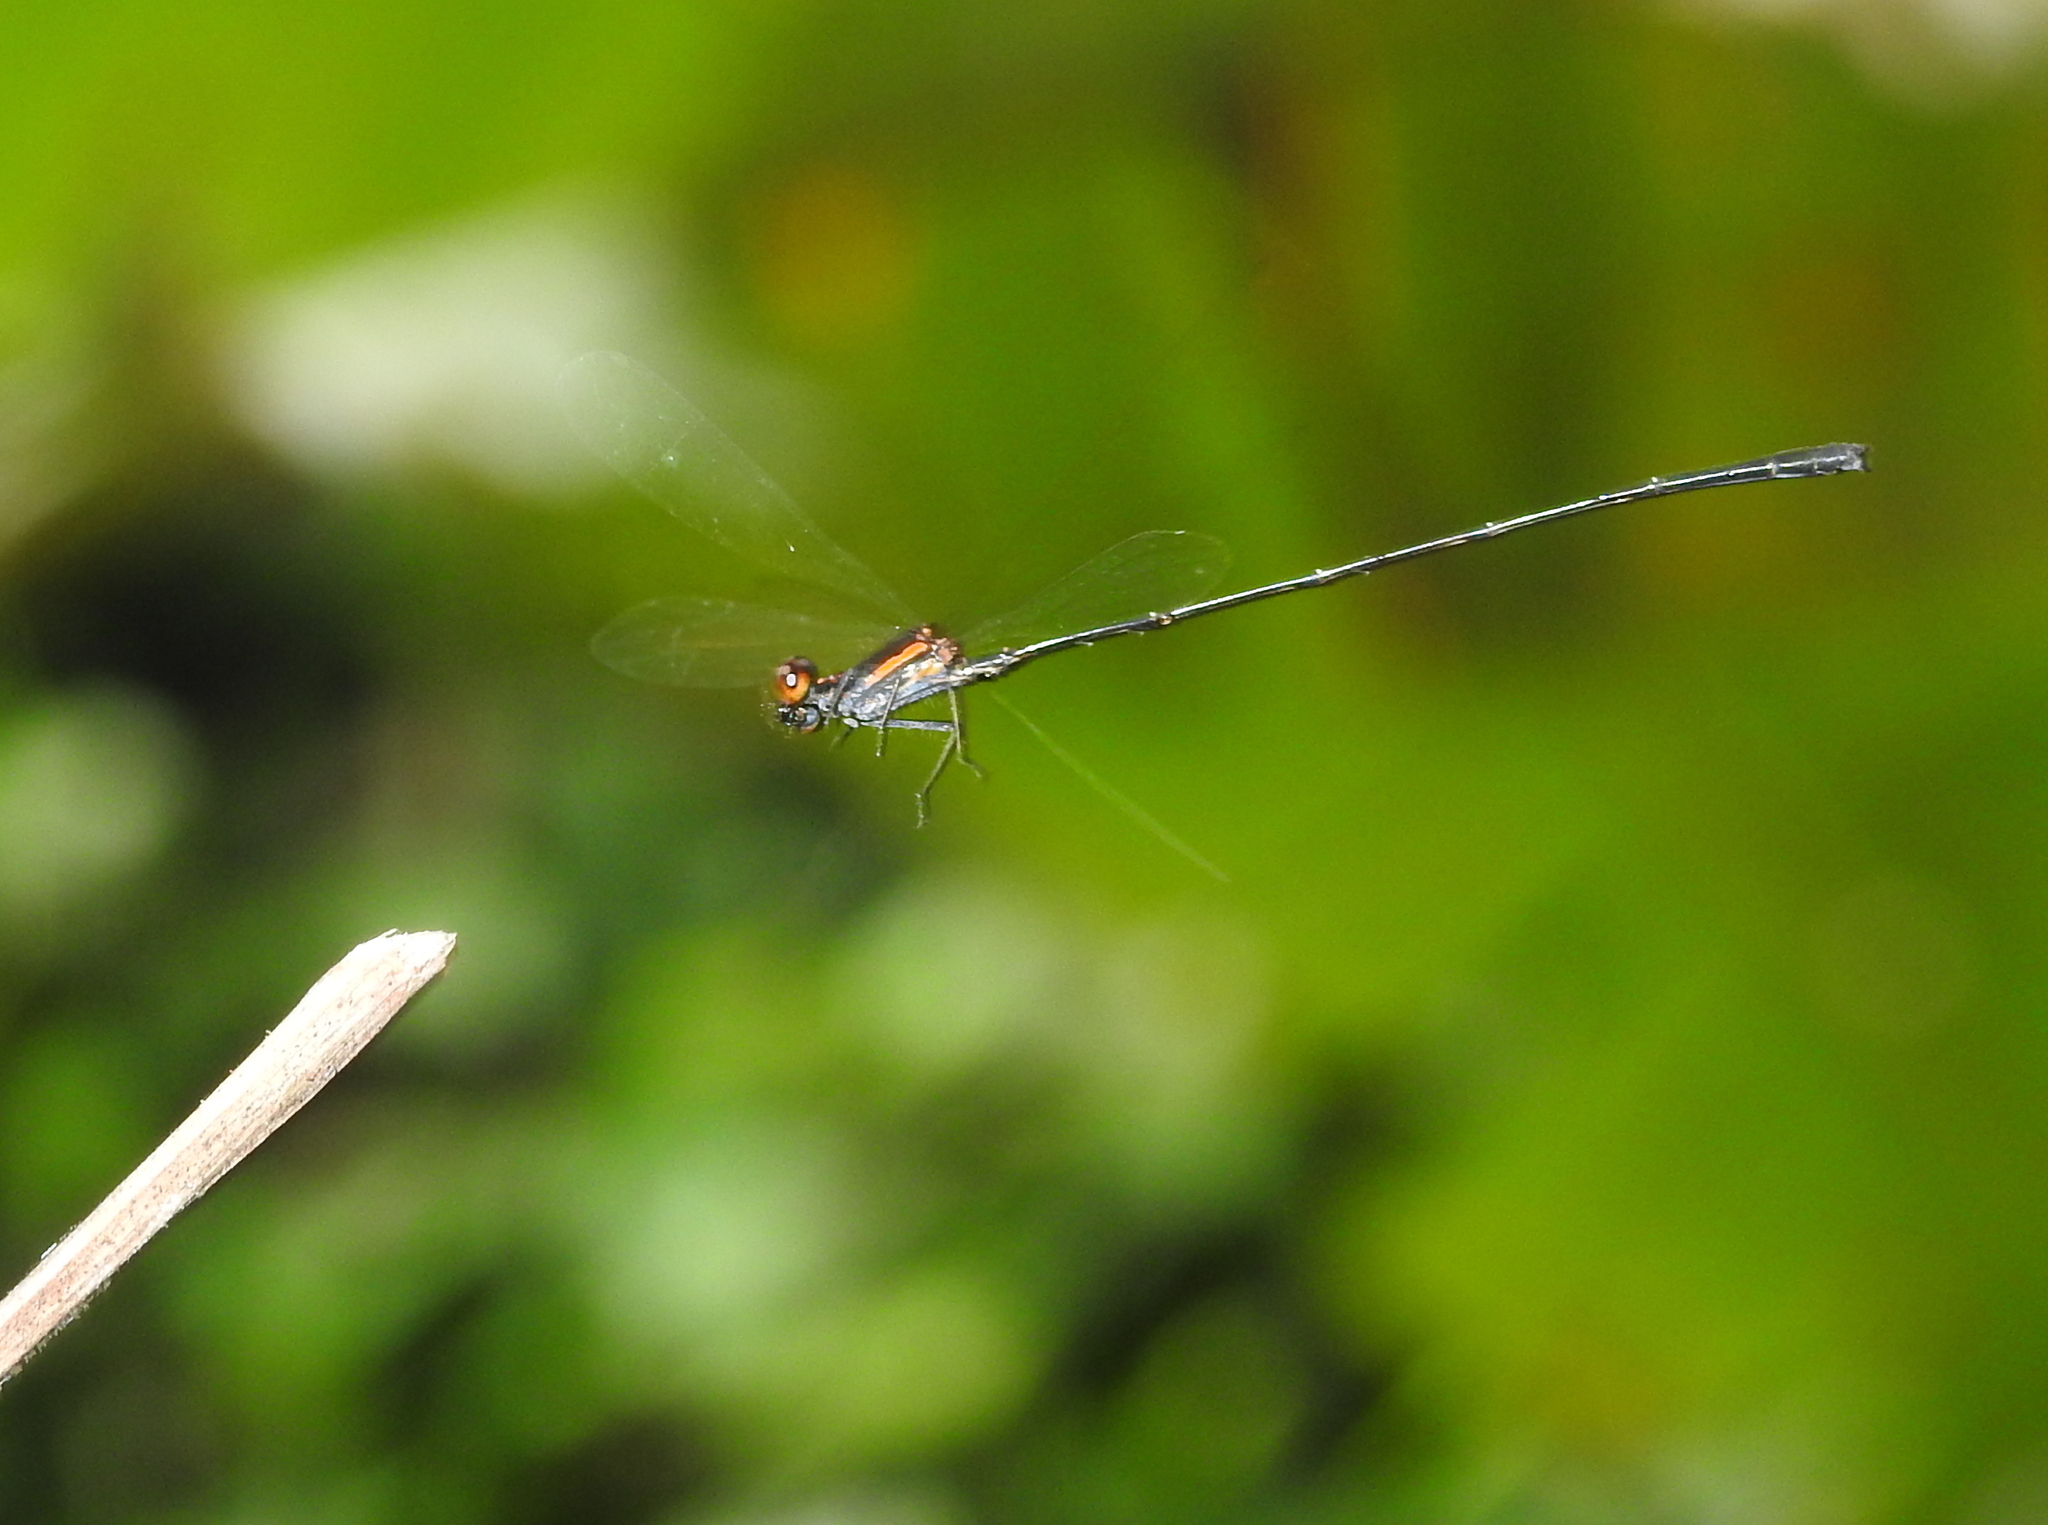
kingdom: Animalia
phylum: Arthropoda
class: Insecta
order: Odonata
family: Platycnemididae
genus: Prodasineura
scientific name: Prodasineura verticalis
